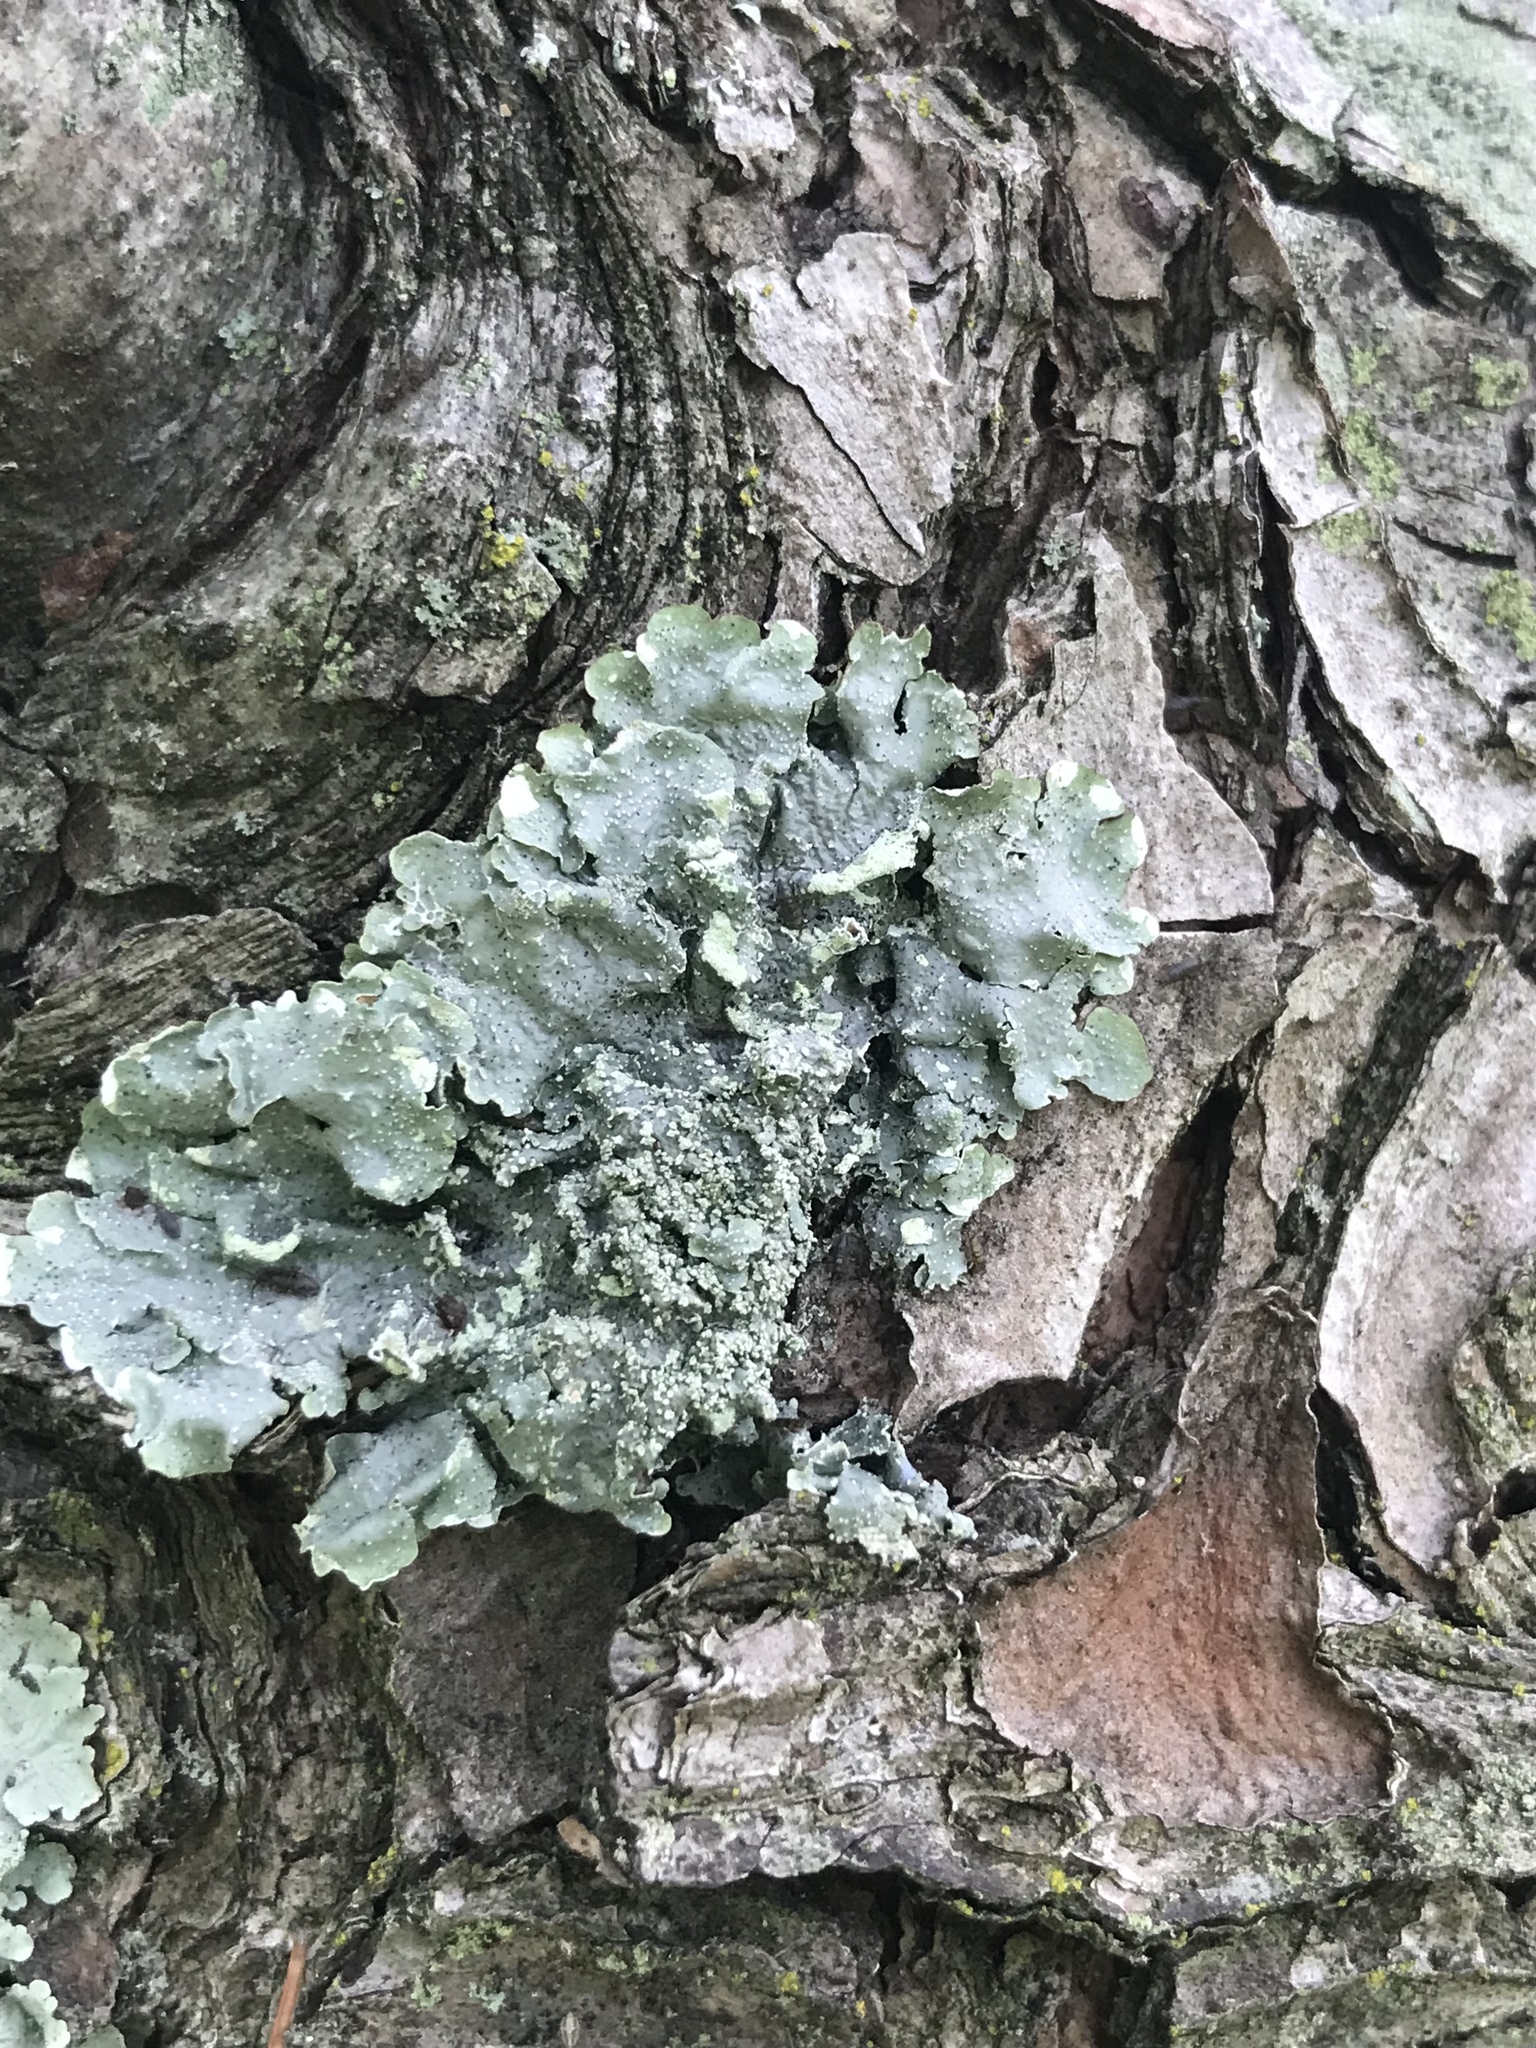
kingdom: Fungi
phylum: Ascomycota
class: Lecanoromycetes
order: Lecanorales
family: Parmeliaceae
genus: Punctelia
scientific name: Punctelia missouriensis
